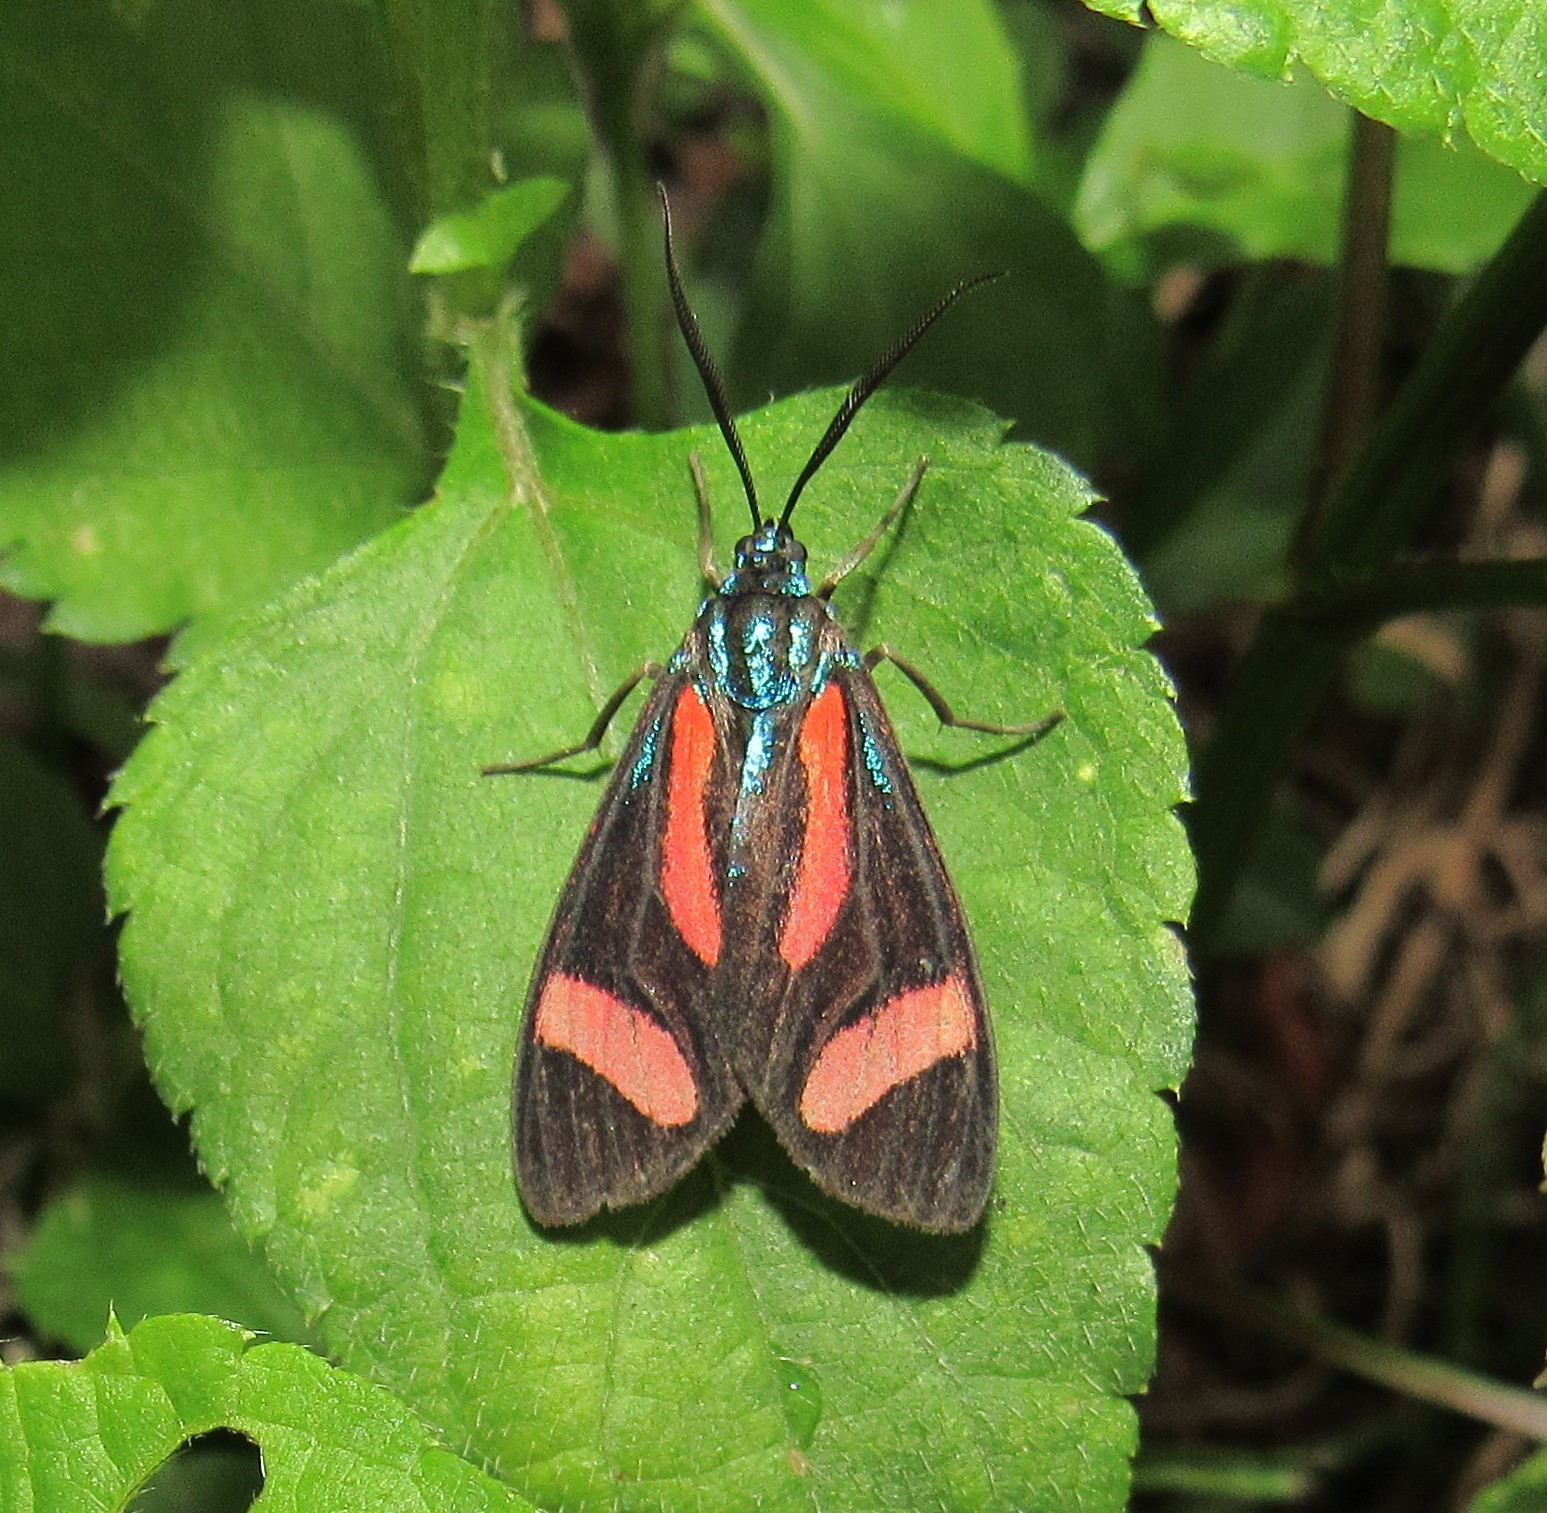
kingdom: Animalia
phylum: Arthropoda
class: Insecta
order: Lepidoptera
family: Erebidae
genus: Cyanopepla
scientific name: Cyanopepla jucunda
